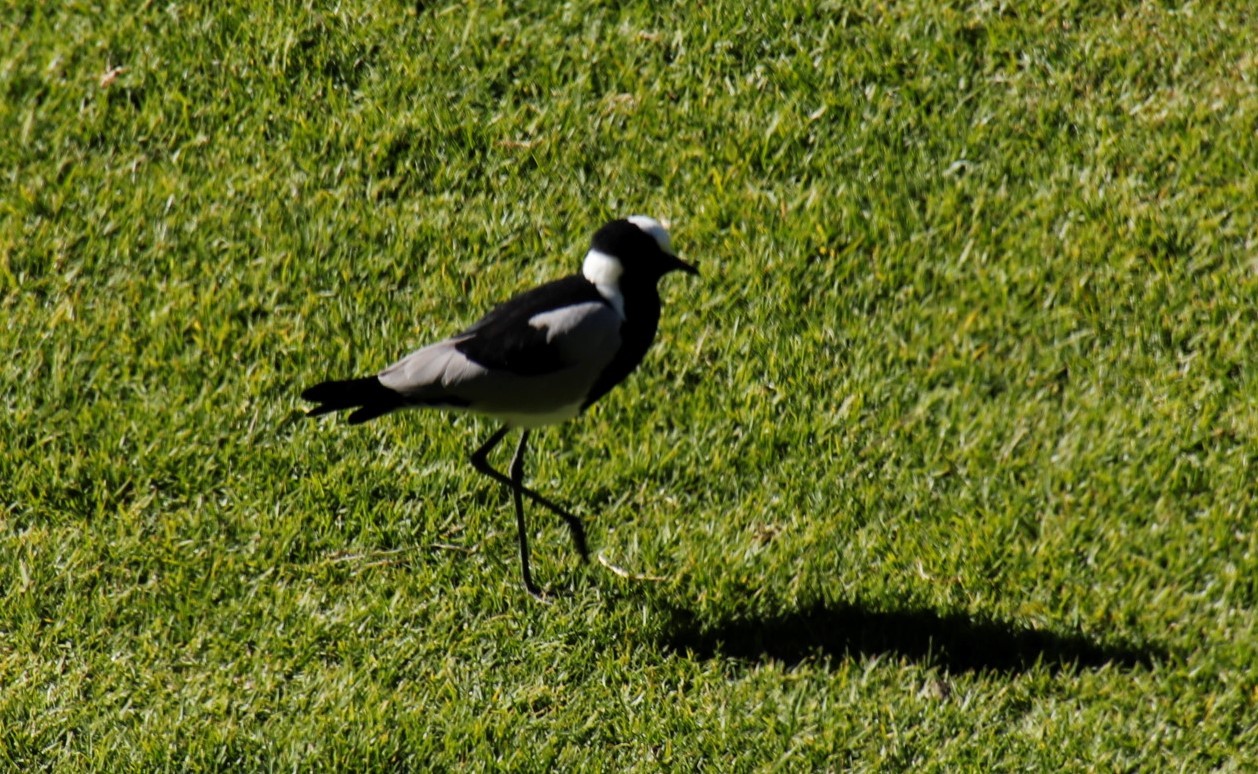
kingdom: Animalia
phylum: Chordata
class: Aves
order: Charadriiformes
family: Charadriidae
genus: Vanellus
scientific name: Vanellus armatus
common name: Blacksmith lapwing
